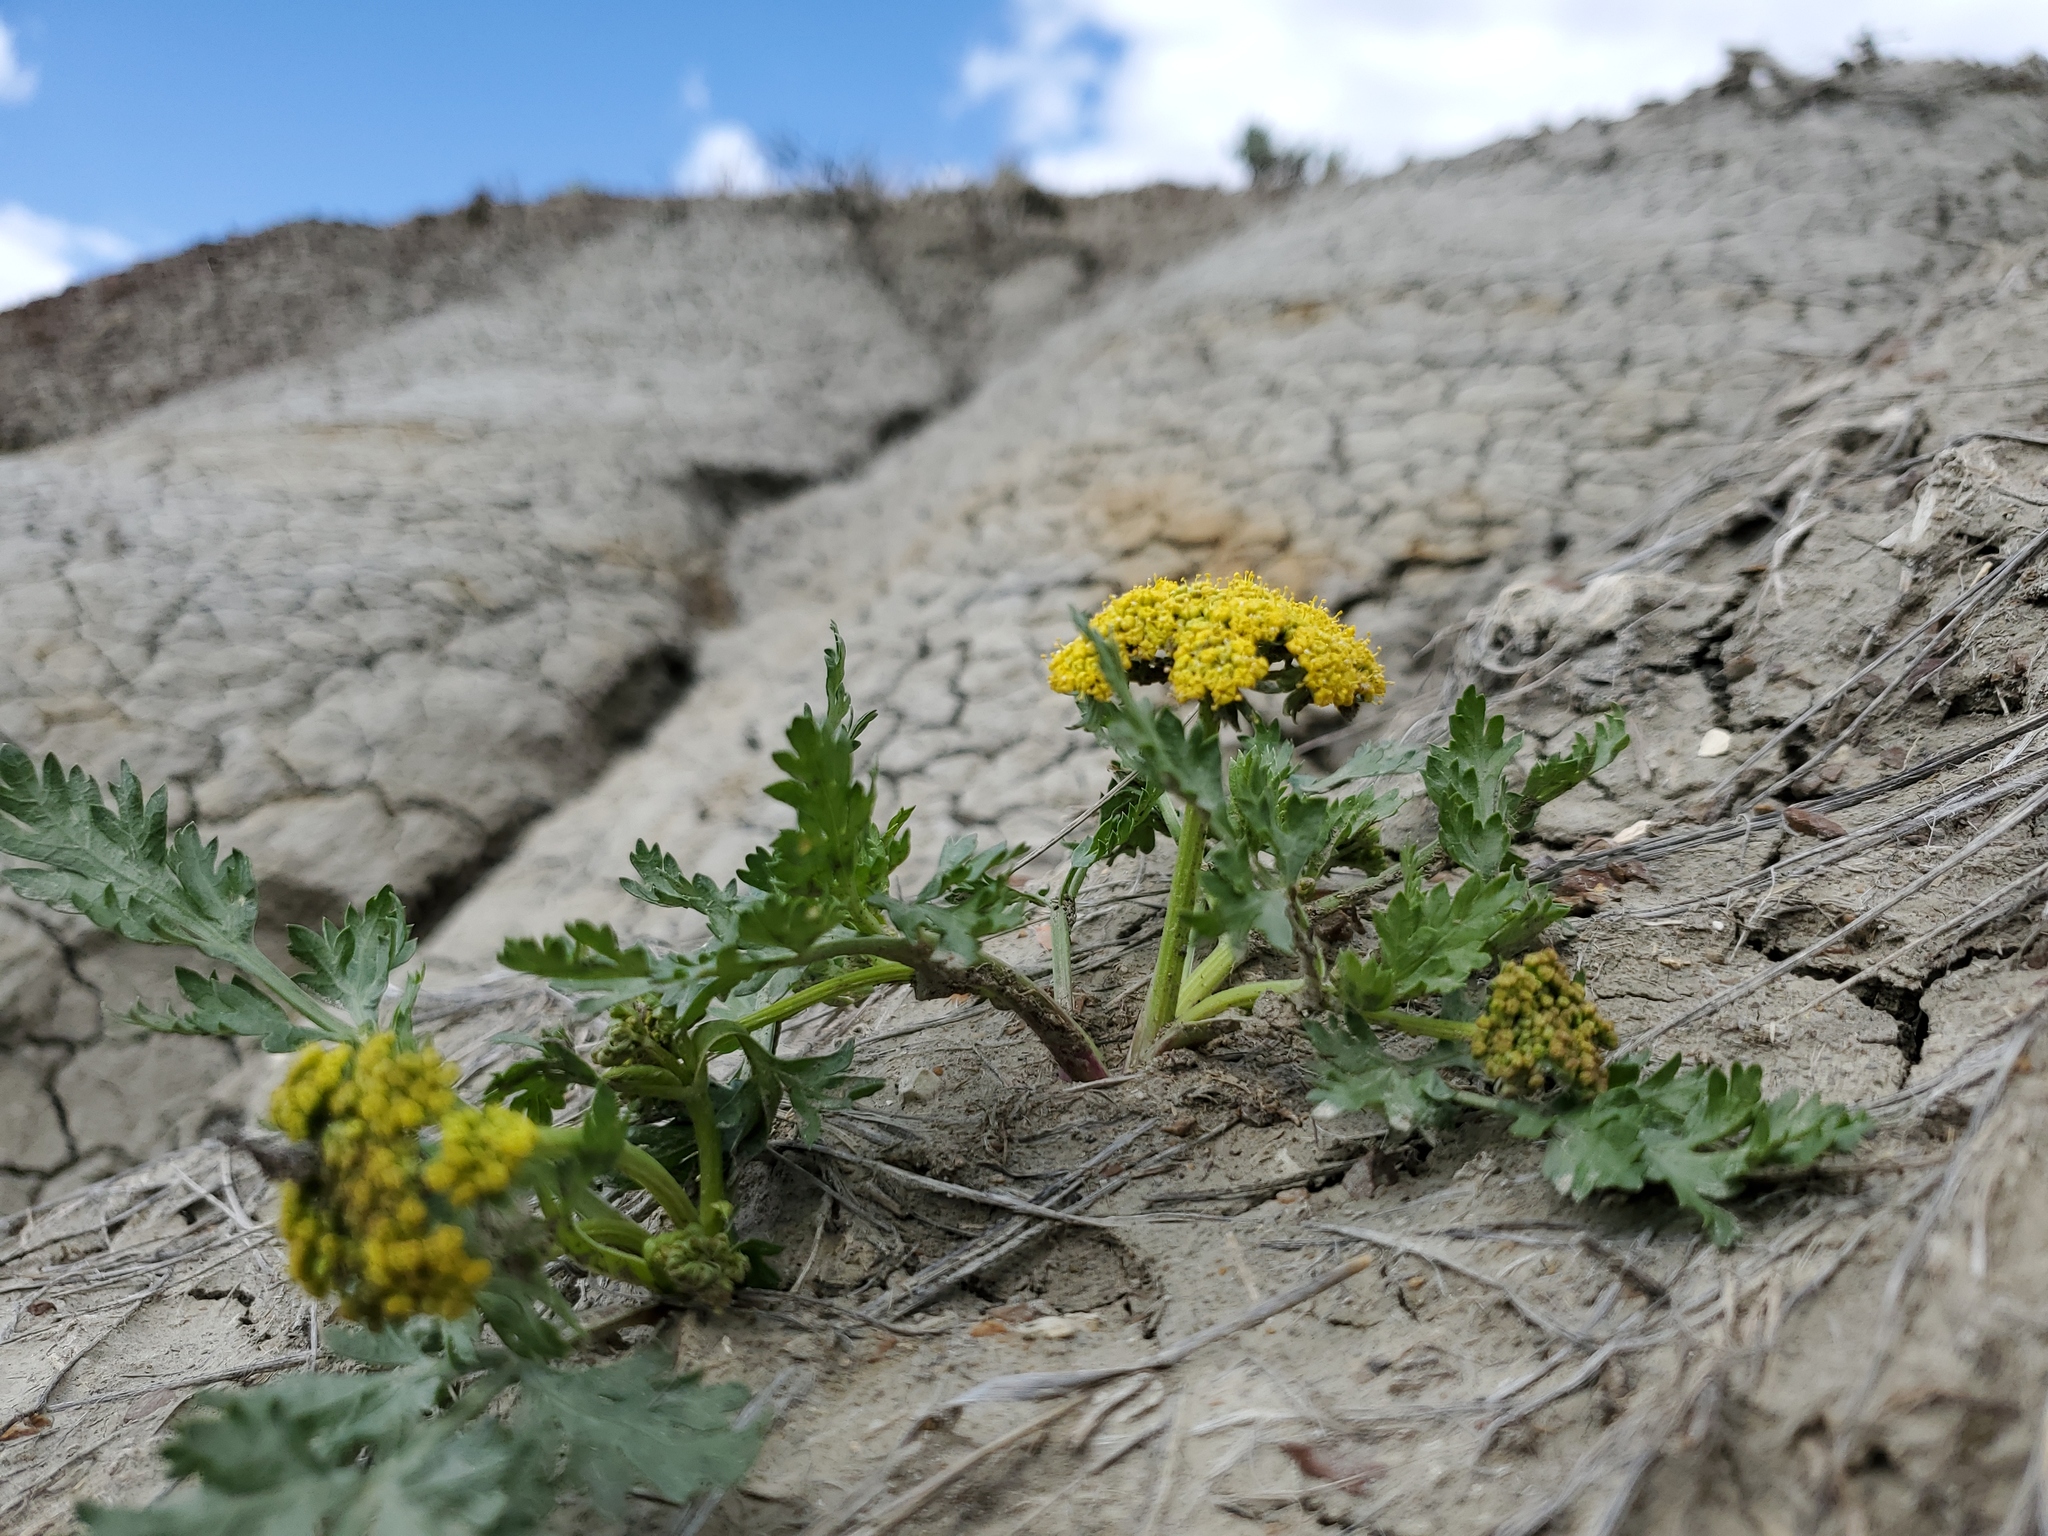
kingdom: Plantae
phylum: Tracheophyta
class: Magnoliopsida
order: Apiales
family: Apiaceae
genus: Musineon
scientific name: Musineon divaricatum
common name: Plains musineon
